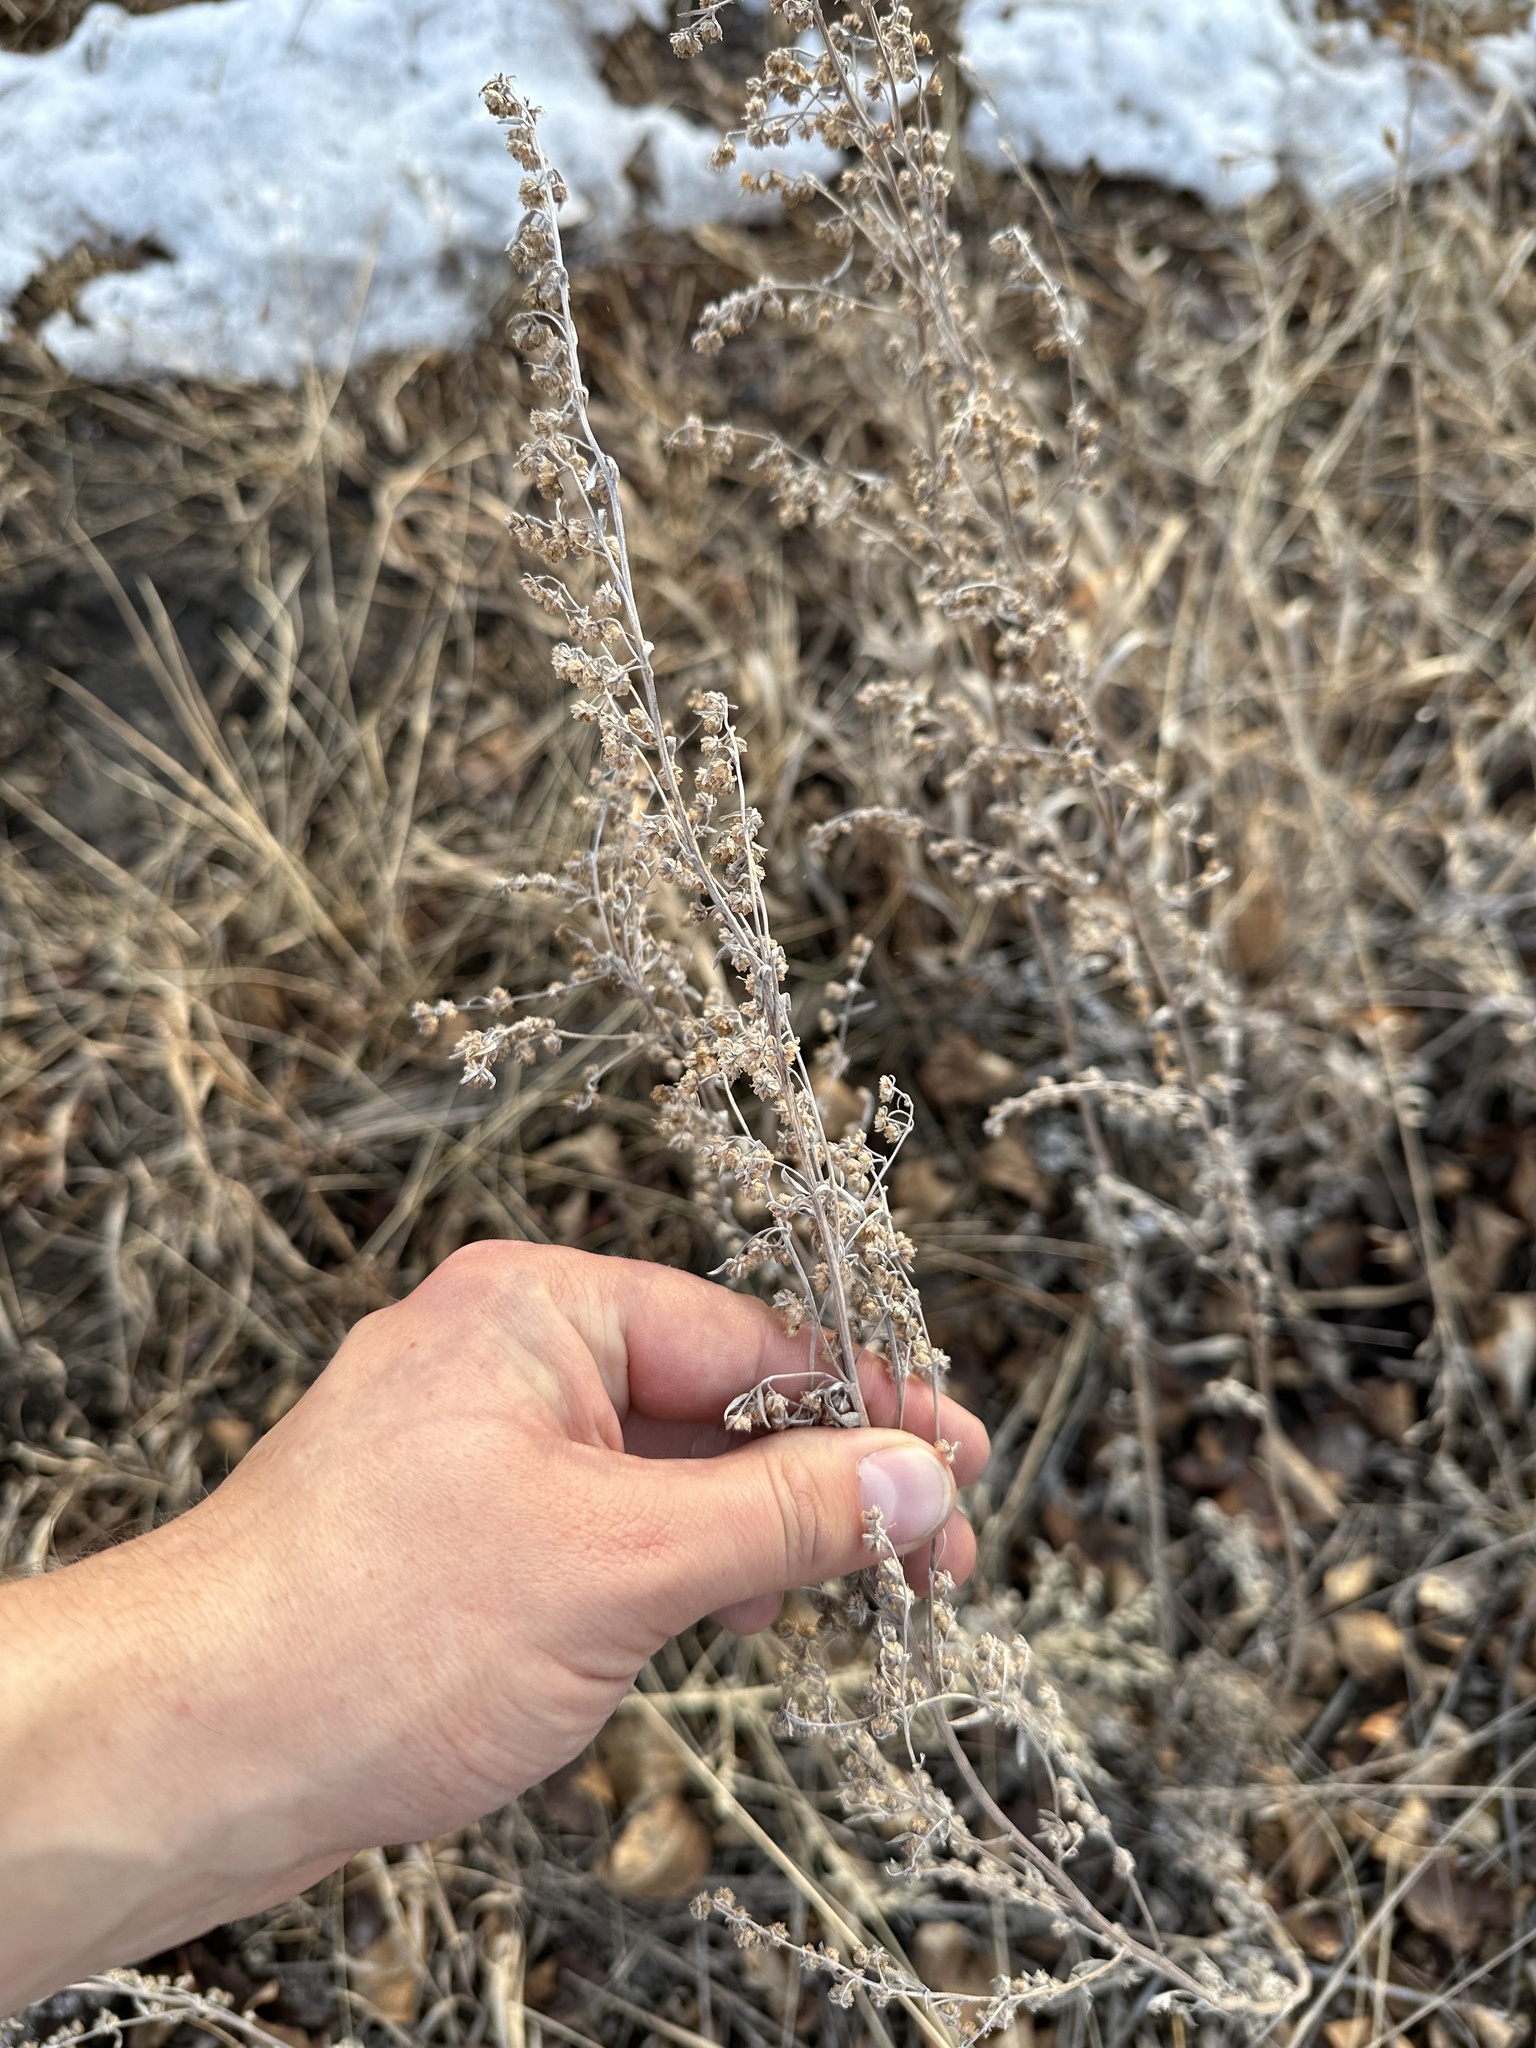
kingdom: Plantae
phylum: Tracheophyta
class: Magnoliopsida
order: Asterales
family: Asteraceae
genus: Artemisia
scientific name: Artemisia absinthium
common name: Wormwood
